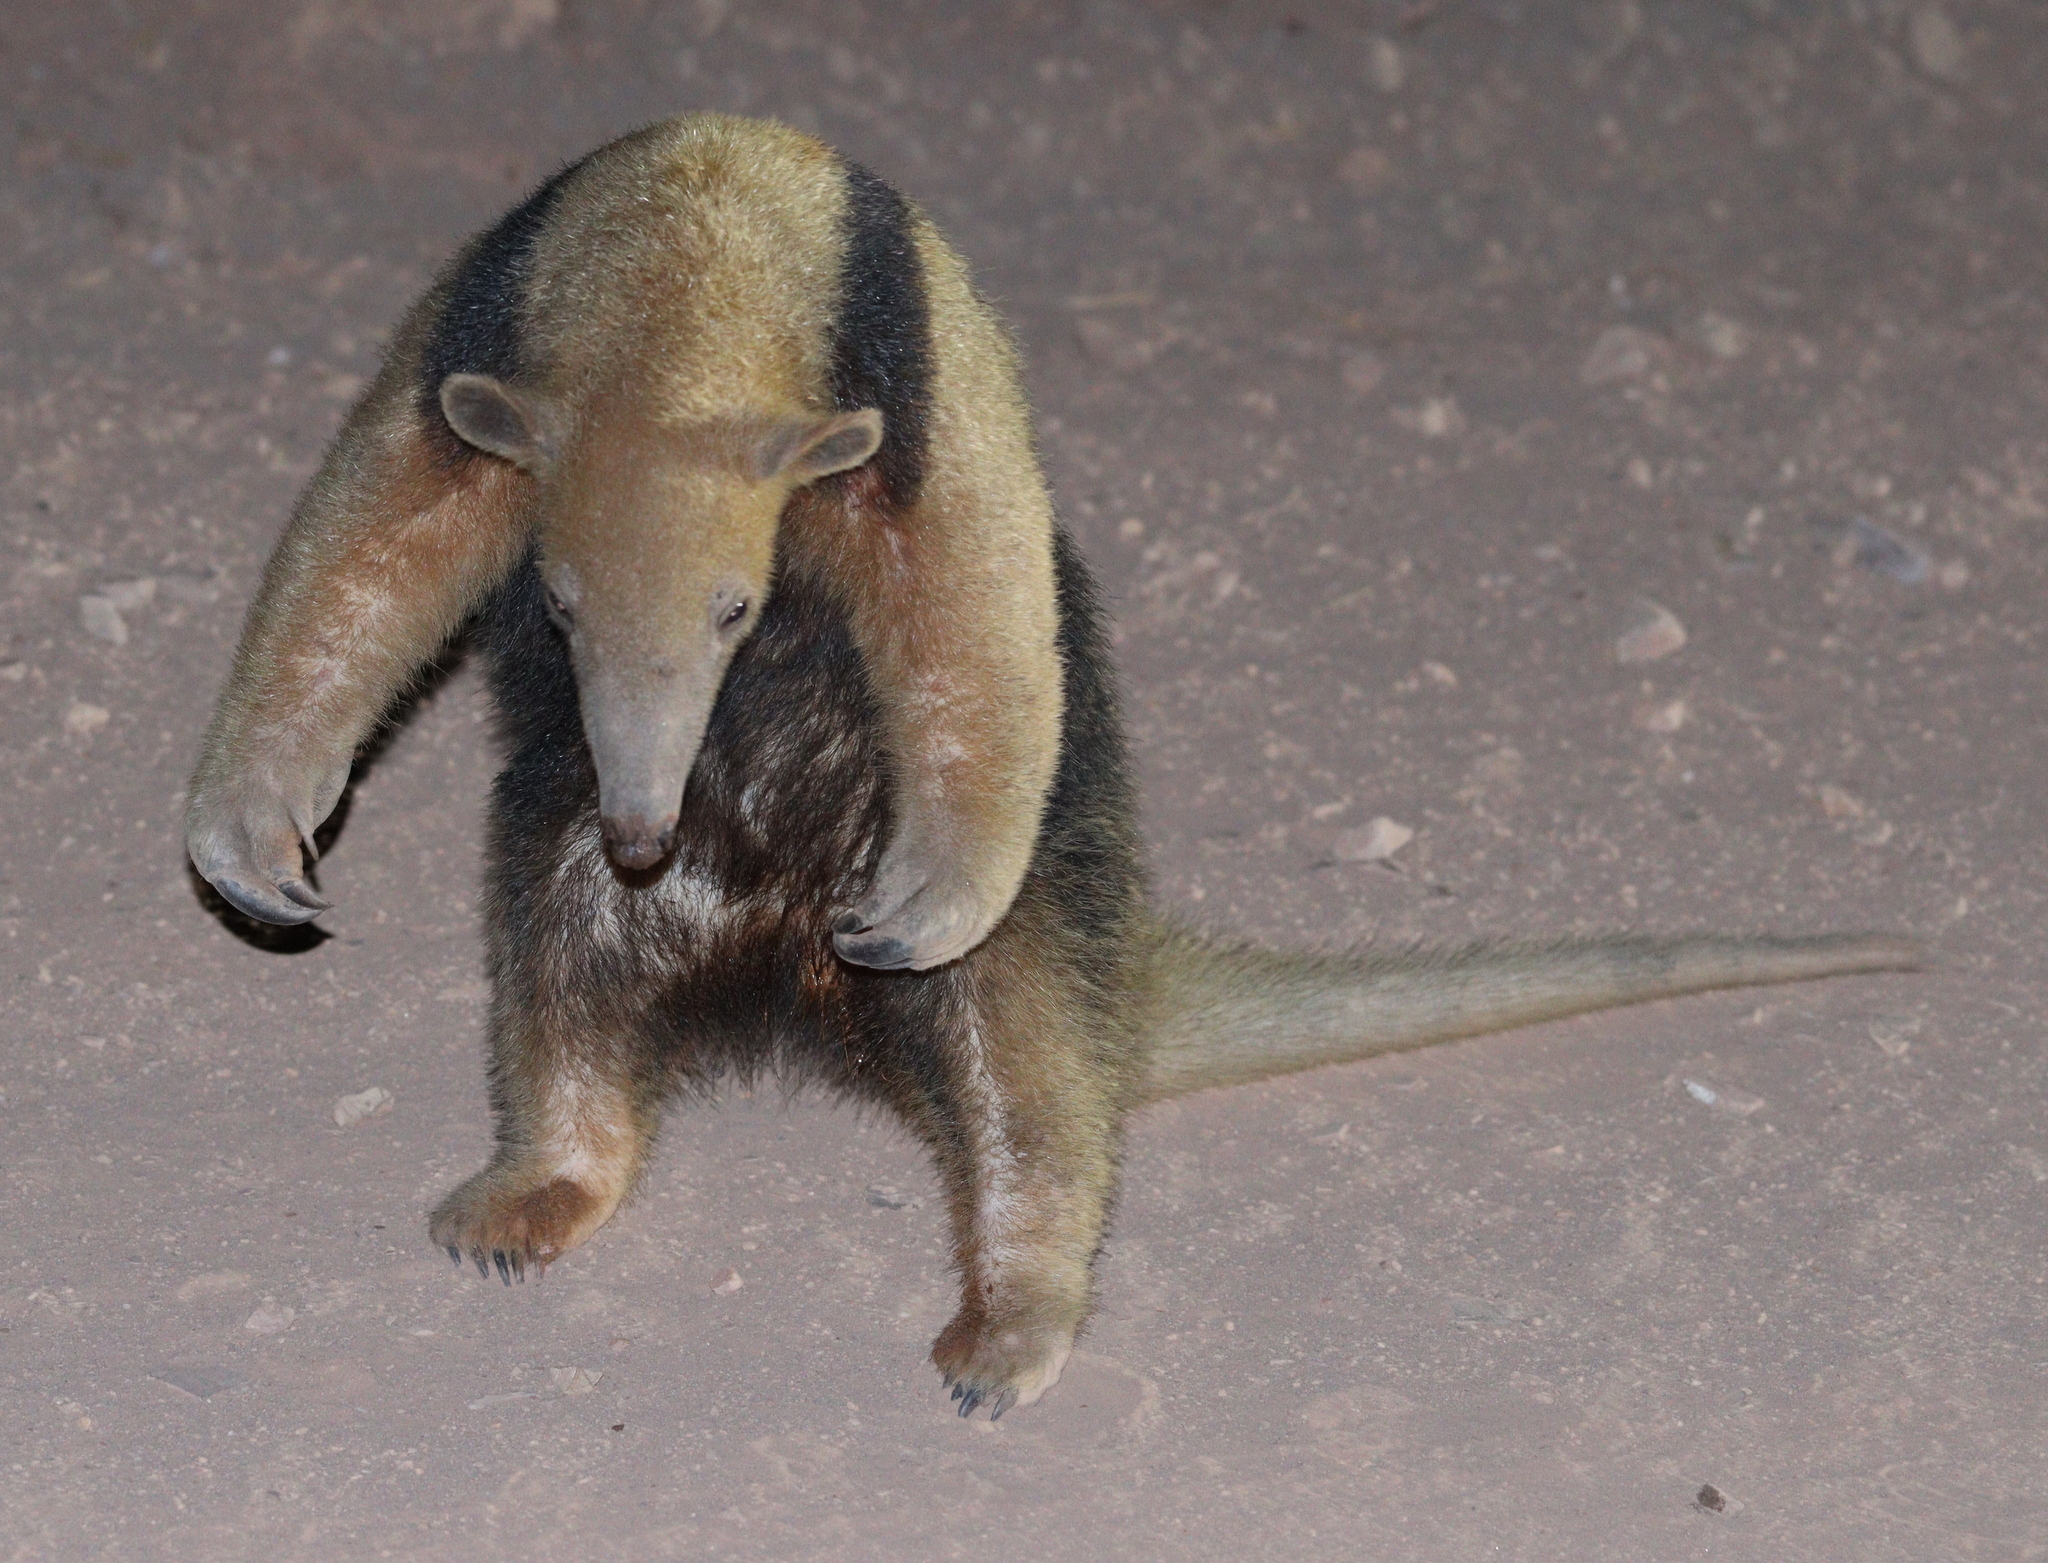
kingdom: Animalia
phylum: Chordata
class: Mammalia
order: Pilosa
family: Myrmecophagidae
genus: Tamandua
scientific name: Tamandua tetradactyla
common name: Southern tamandua
